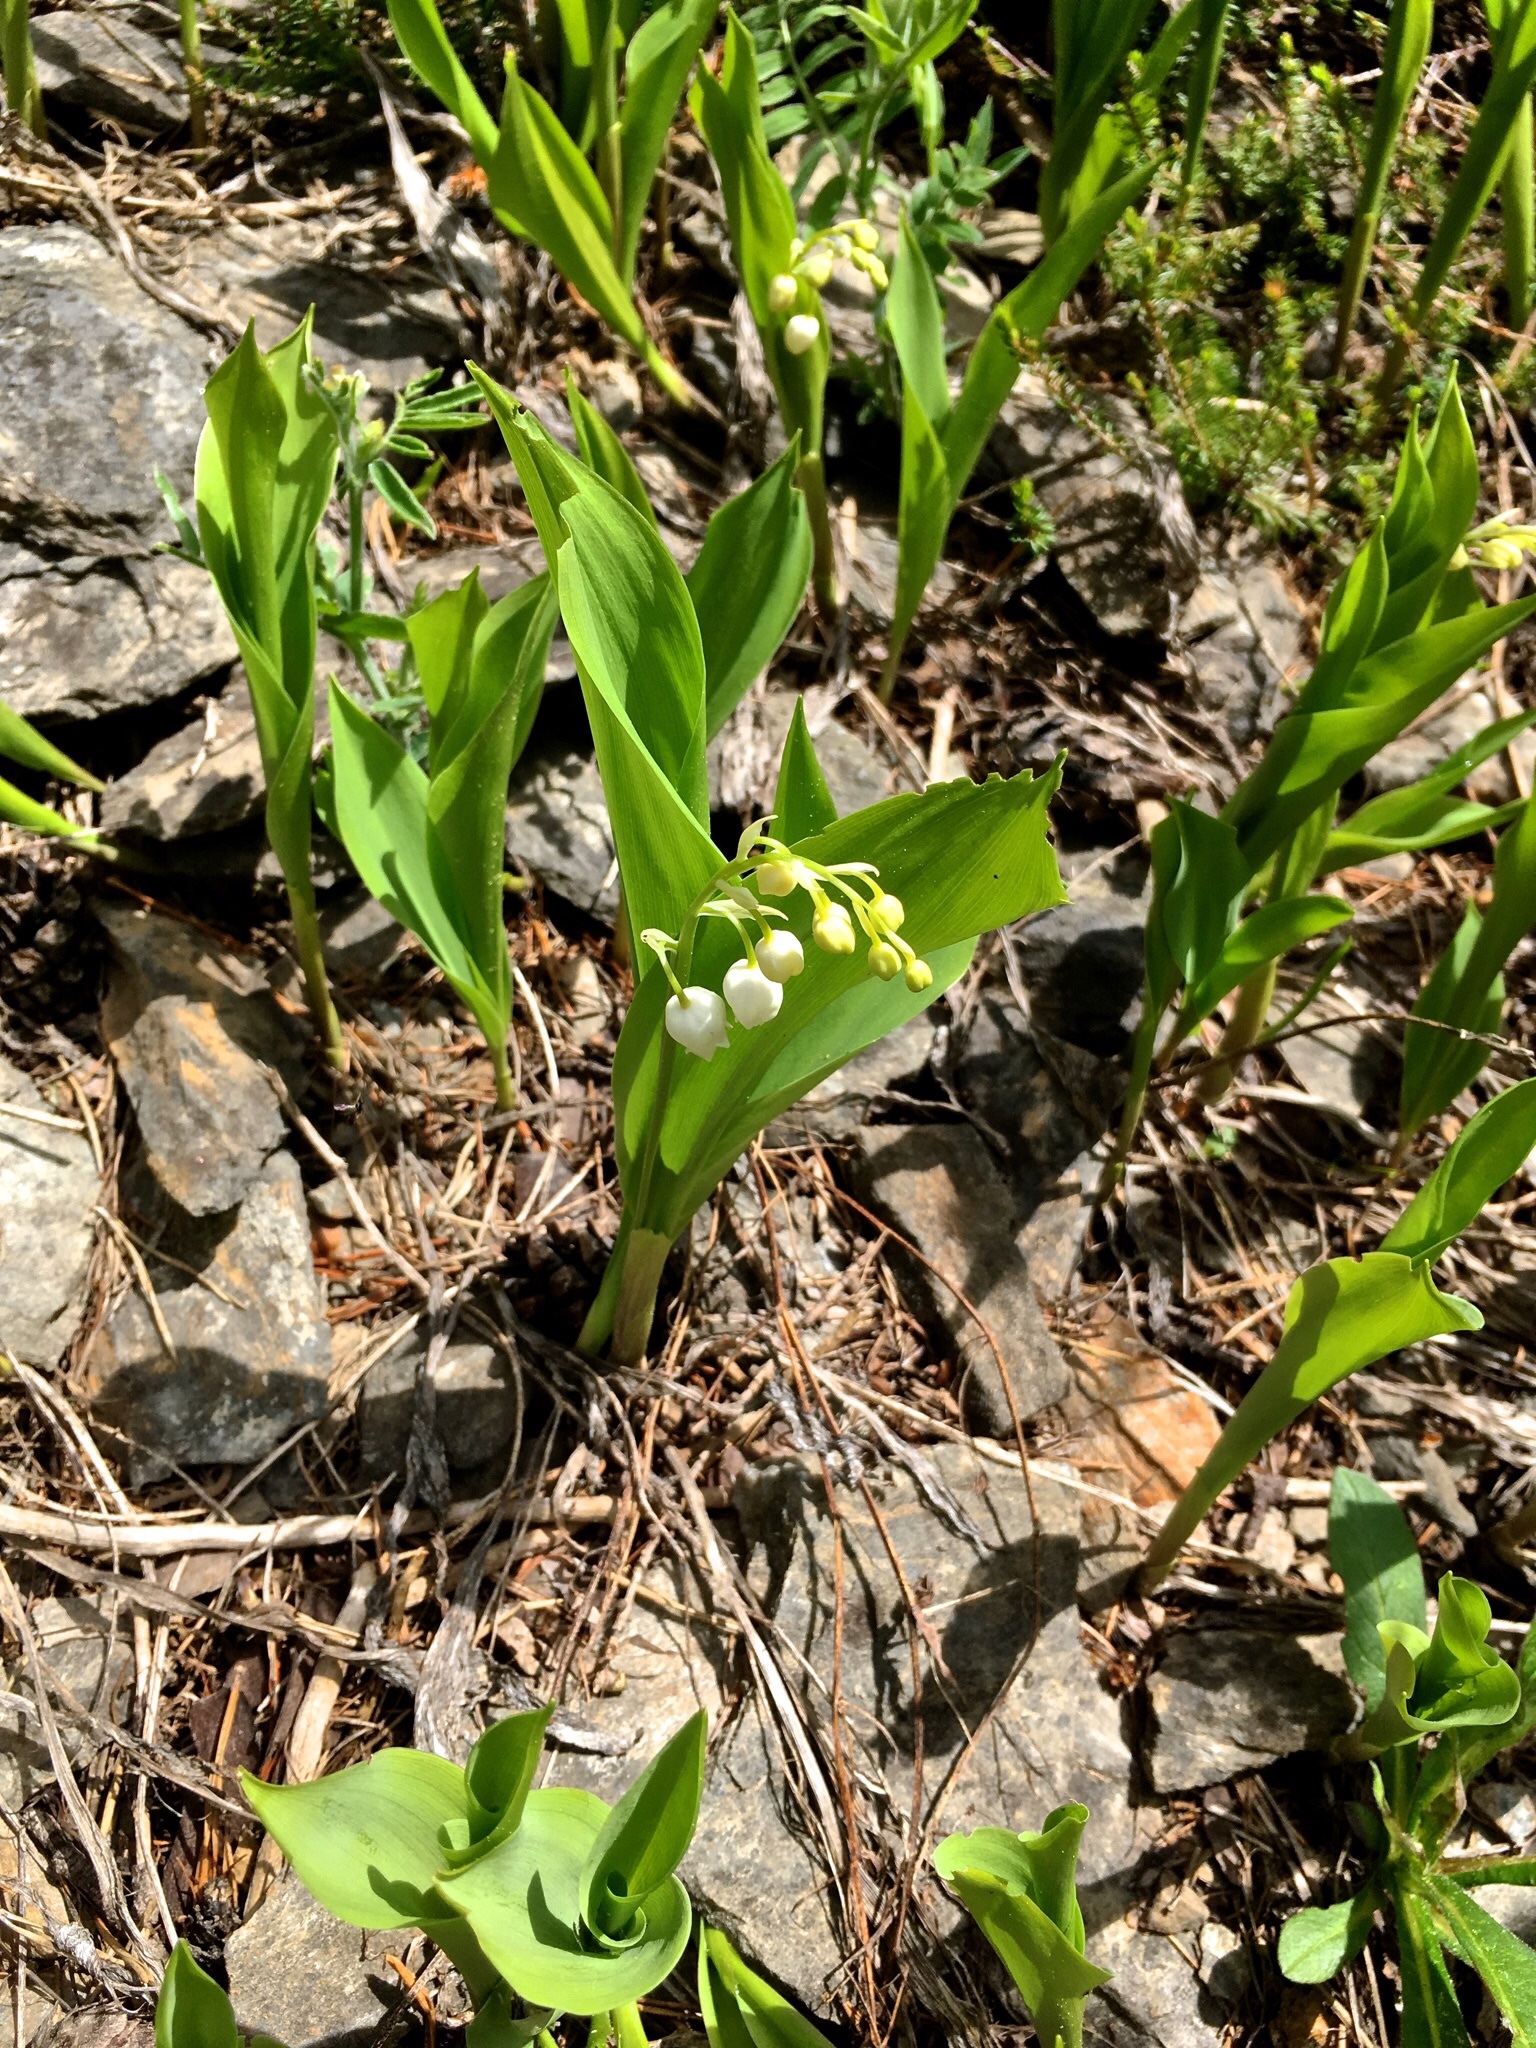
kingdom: Plantae
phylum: Tracheophyta
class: Liliopsida
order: Asparagales
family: Asparagaceae
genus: Convallaria
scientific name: Convallaria majalis
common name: Lily-of-the-valley
